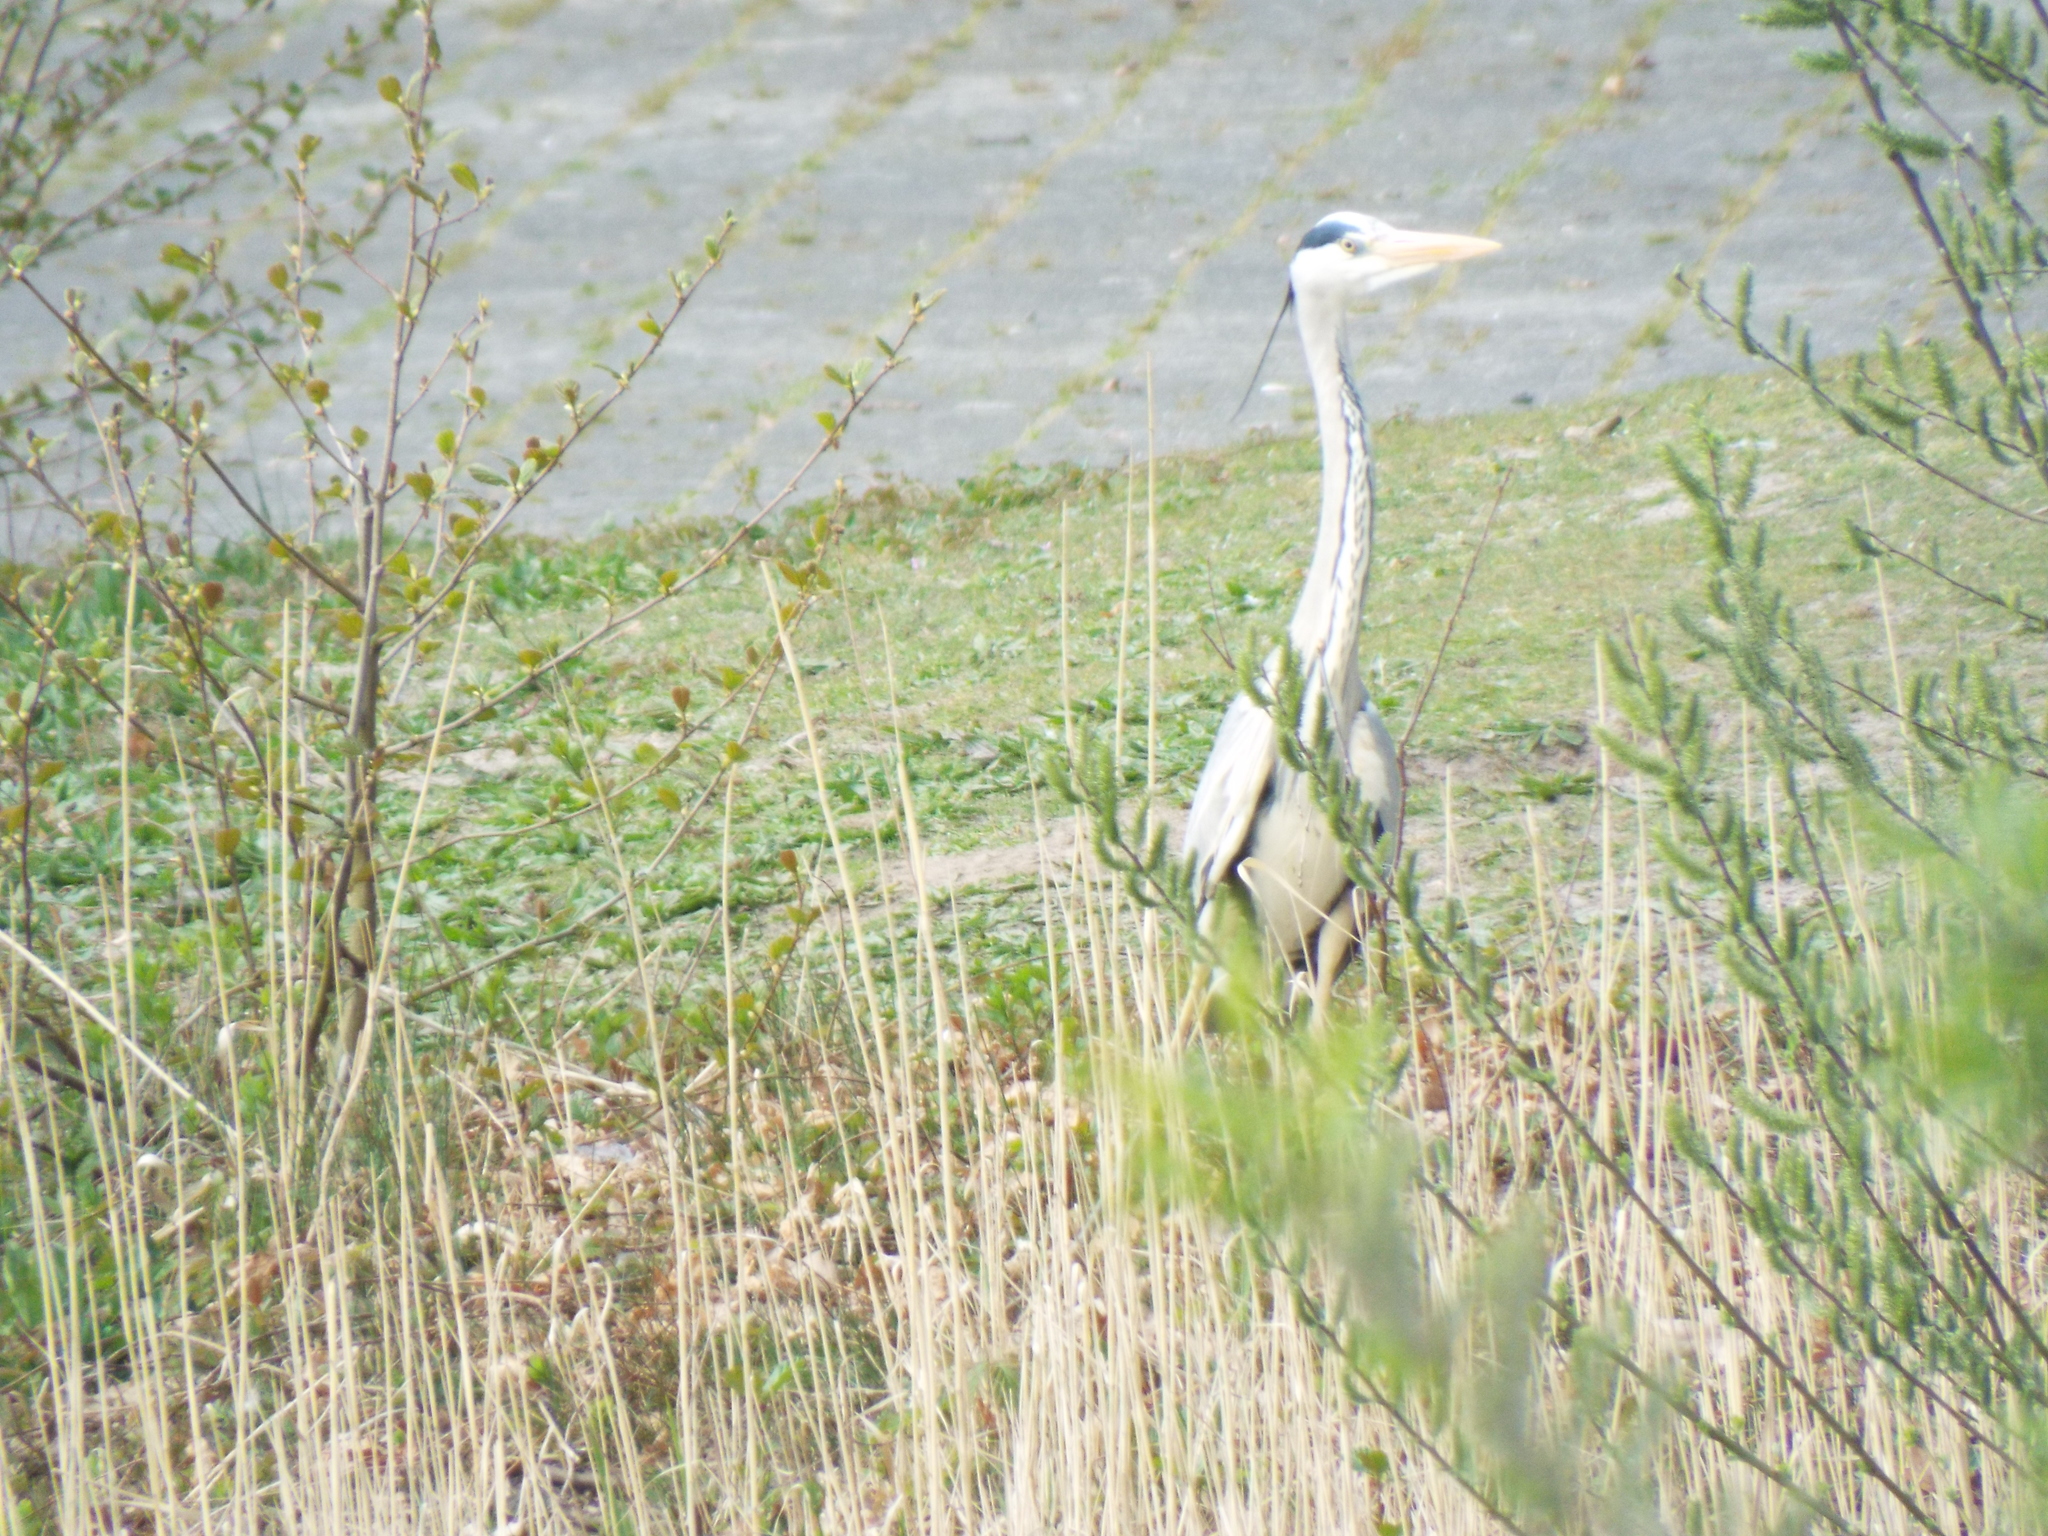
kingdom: Animalia
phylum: Chordata
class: Aves
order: Pelecaniformes
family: Ardeidae
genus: Ardea
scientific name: Ardea cinerea
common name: Grey heron
